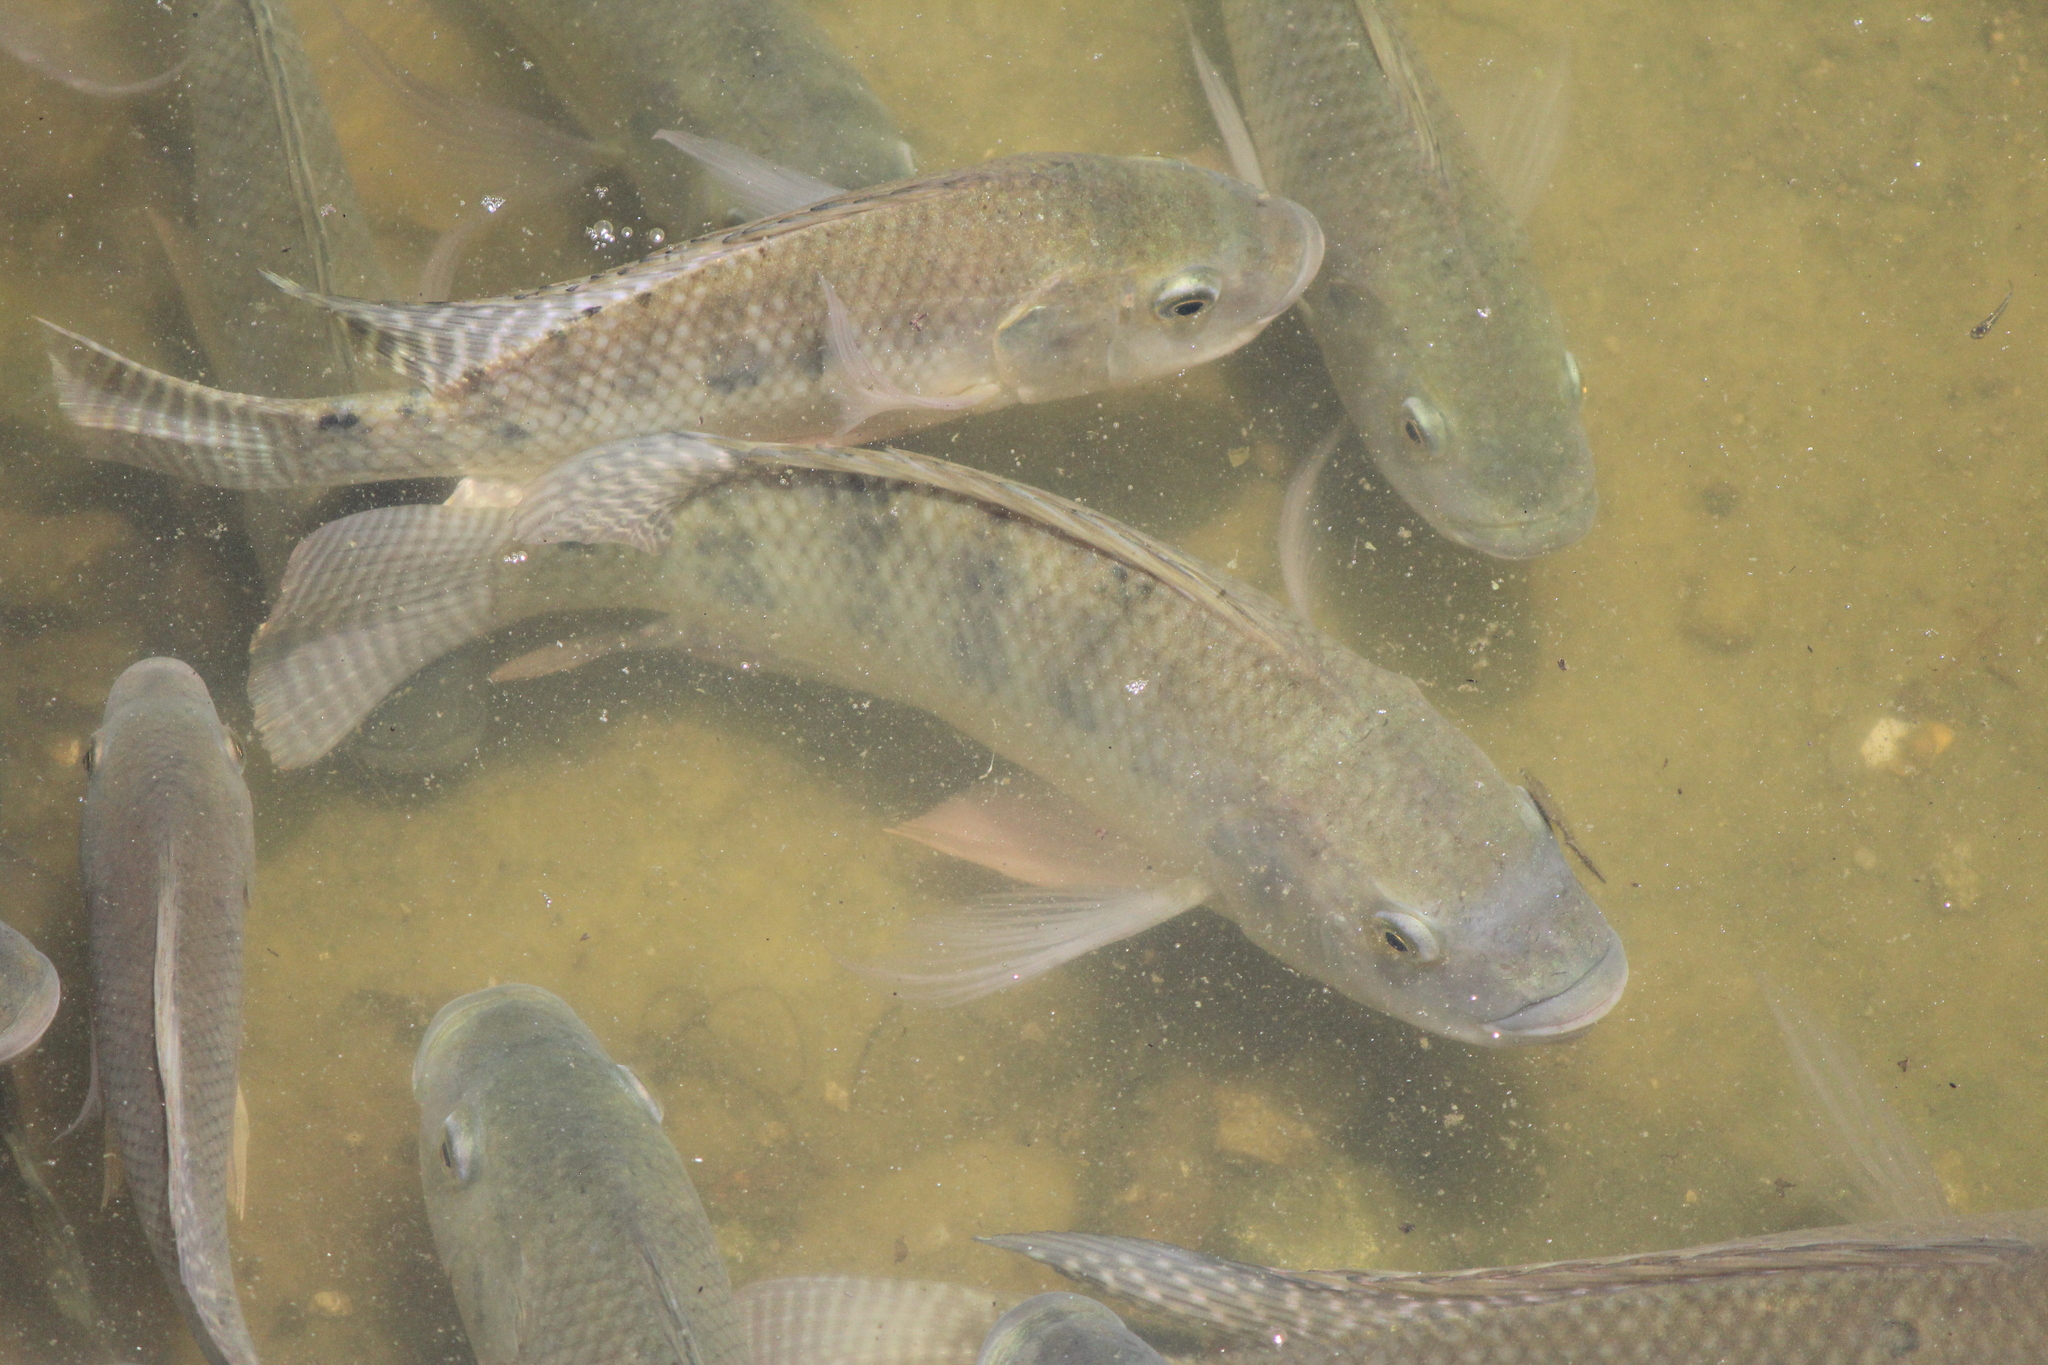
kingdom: Animalia
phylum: Chordata
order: Perciformes
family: Cichlidae
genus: Oreochromis
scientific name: Oreochromis niloticus
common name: Nile tilapia
